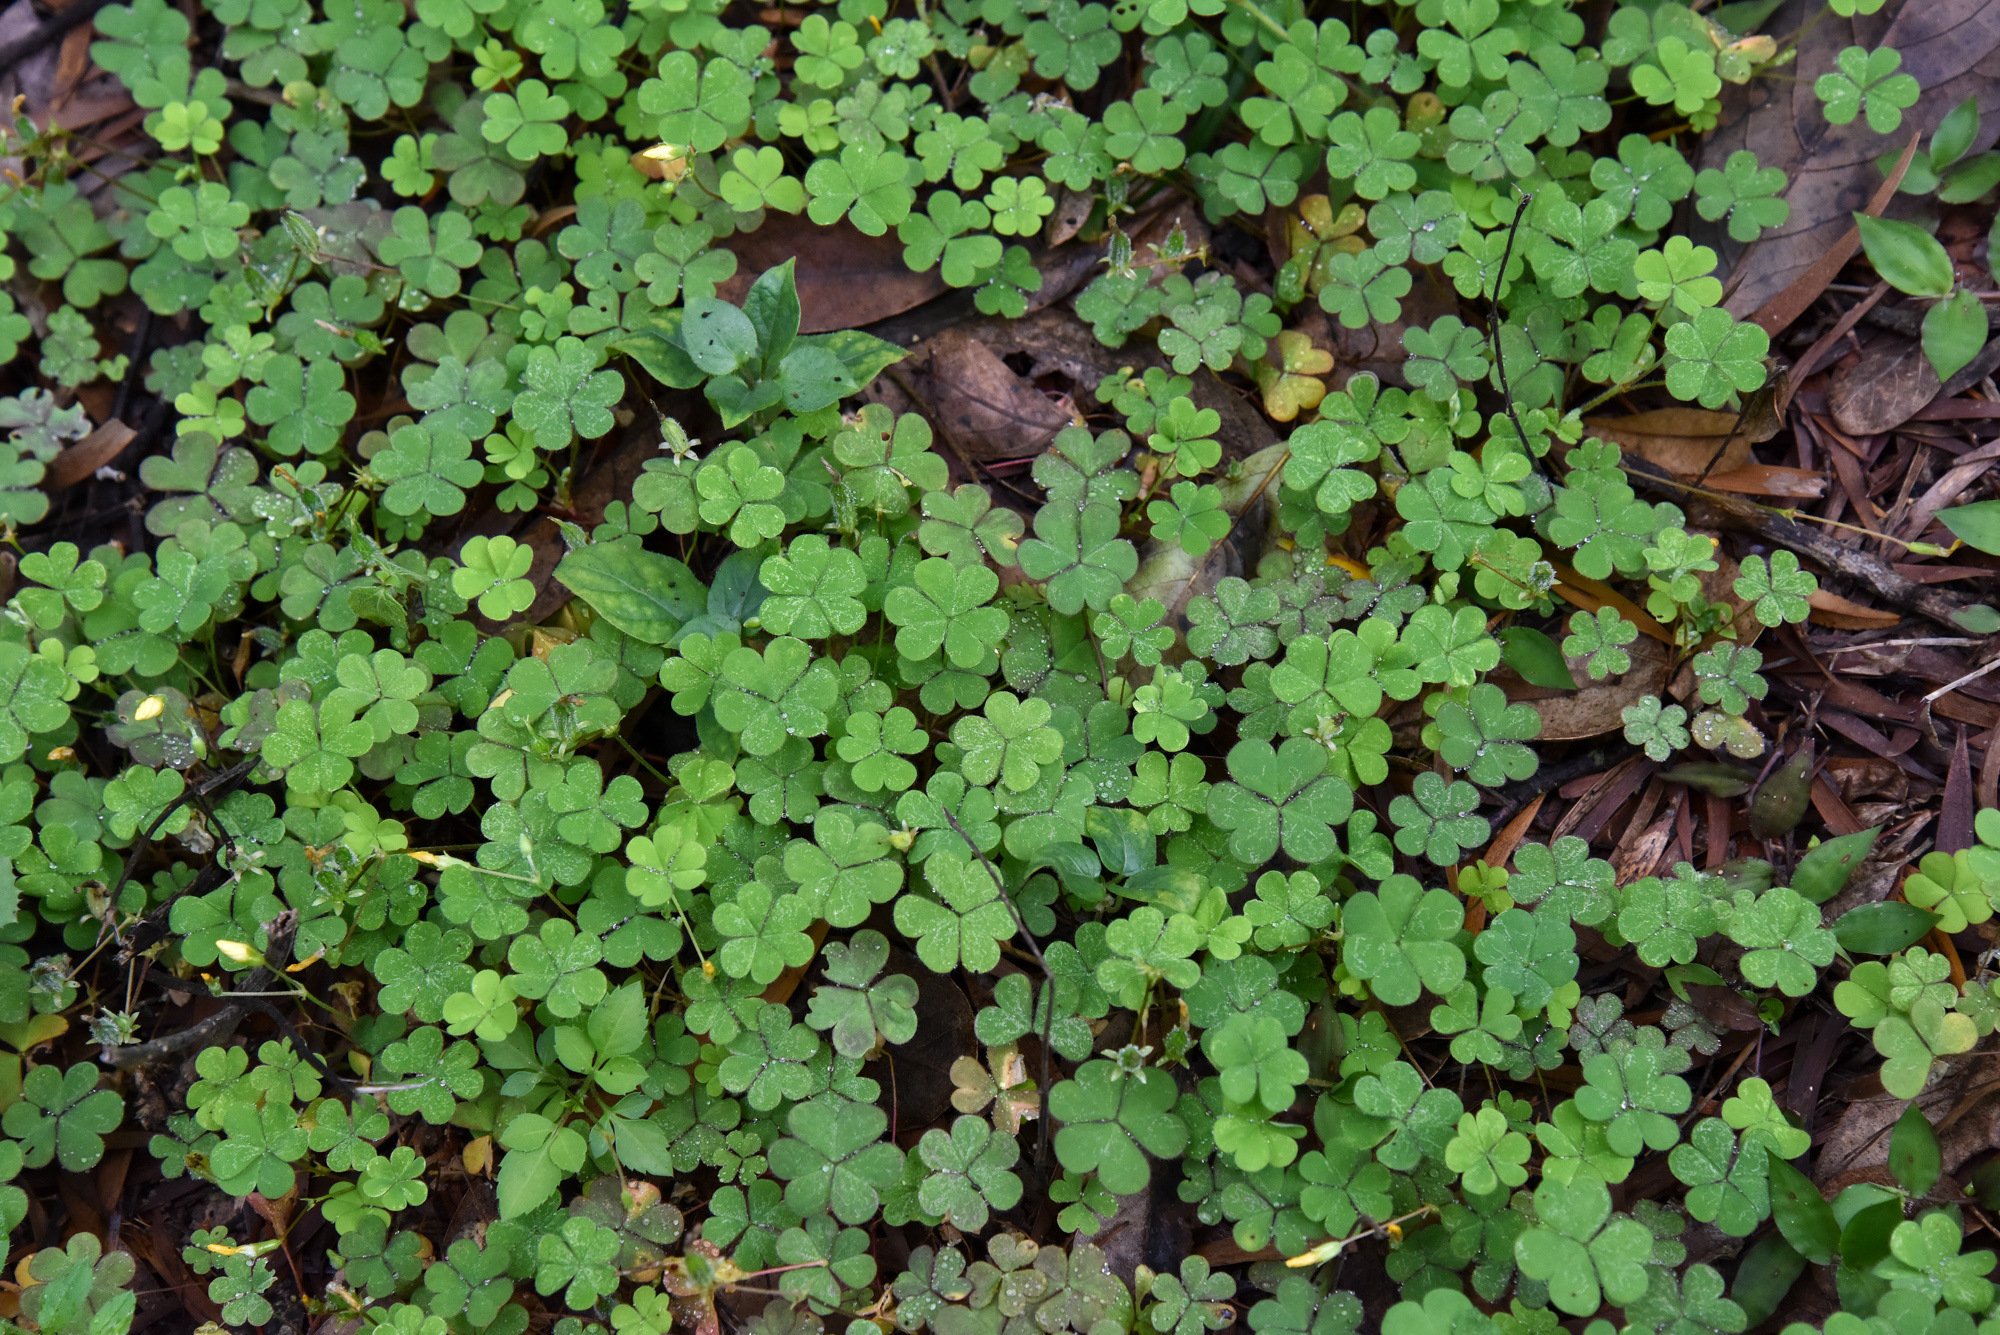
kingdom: Plantae
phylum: Tracheophyta
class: Magnoliopsida
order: Oxalidales
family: Oxalidaceae
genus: Oxalis
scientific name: Oxalis corniculata
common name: Procumbent yellow-sorrel
